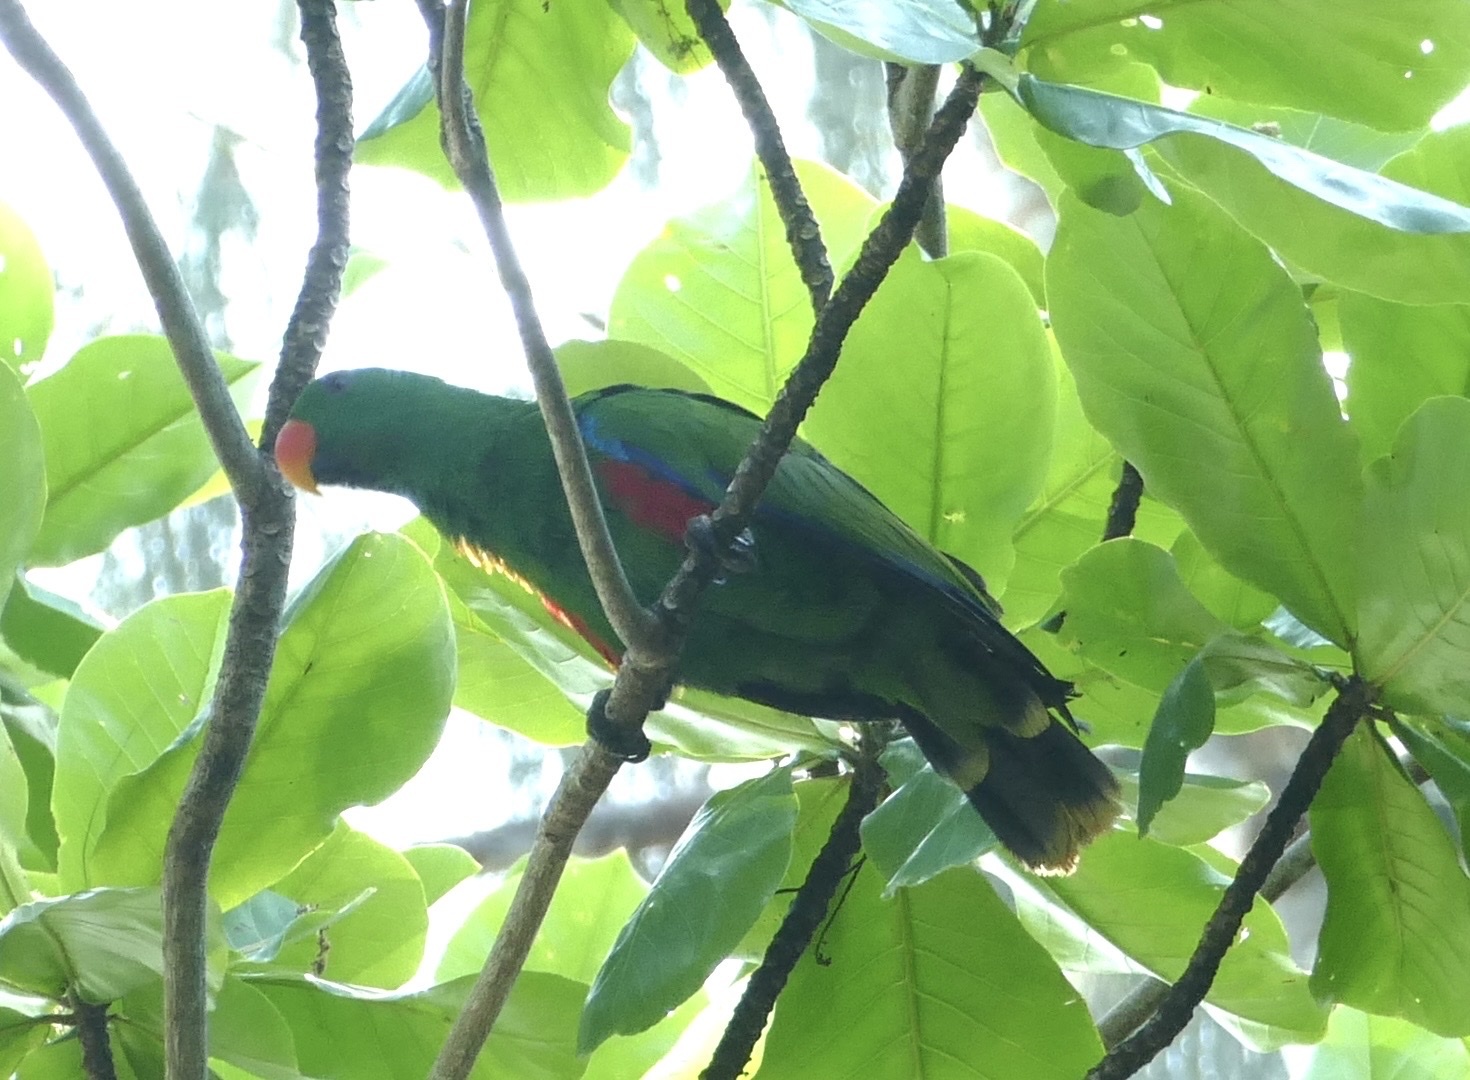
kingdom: Animalia
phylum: Chordata
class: Aves
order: Psittaciformes
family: Psittacidae
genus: Eclectus
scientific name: Eclectus roratus
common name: Eclectus parrot
